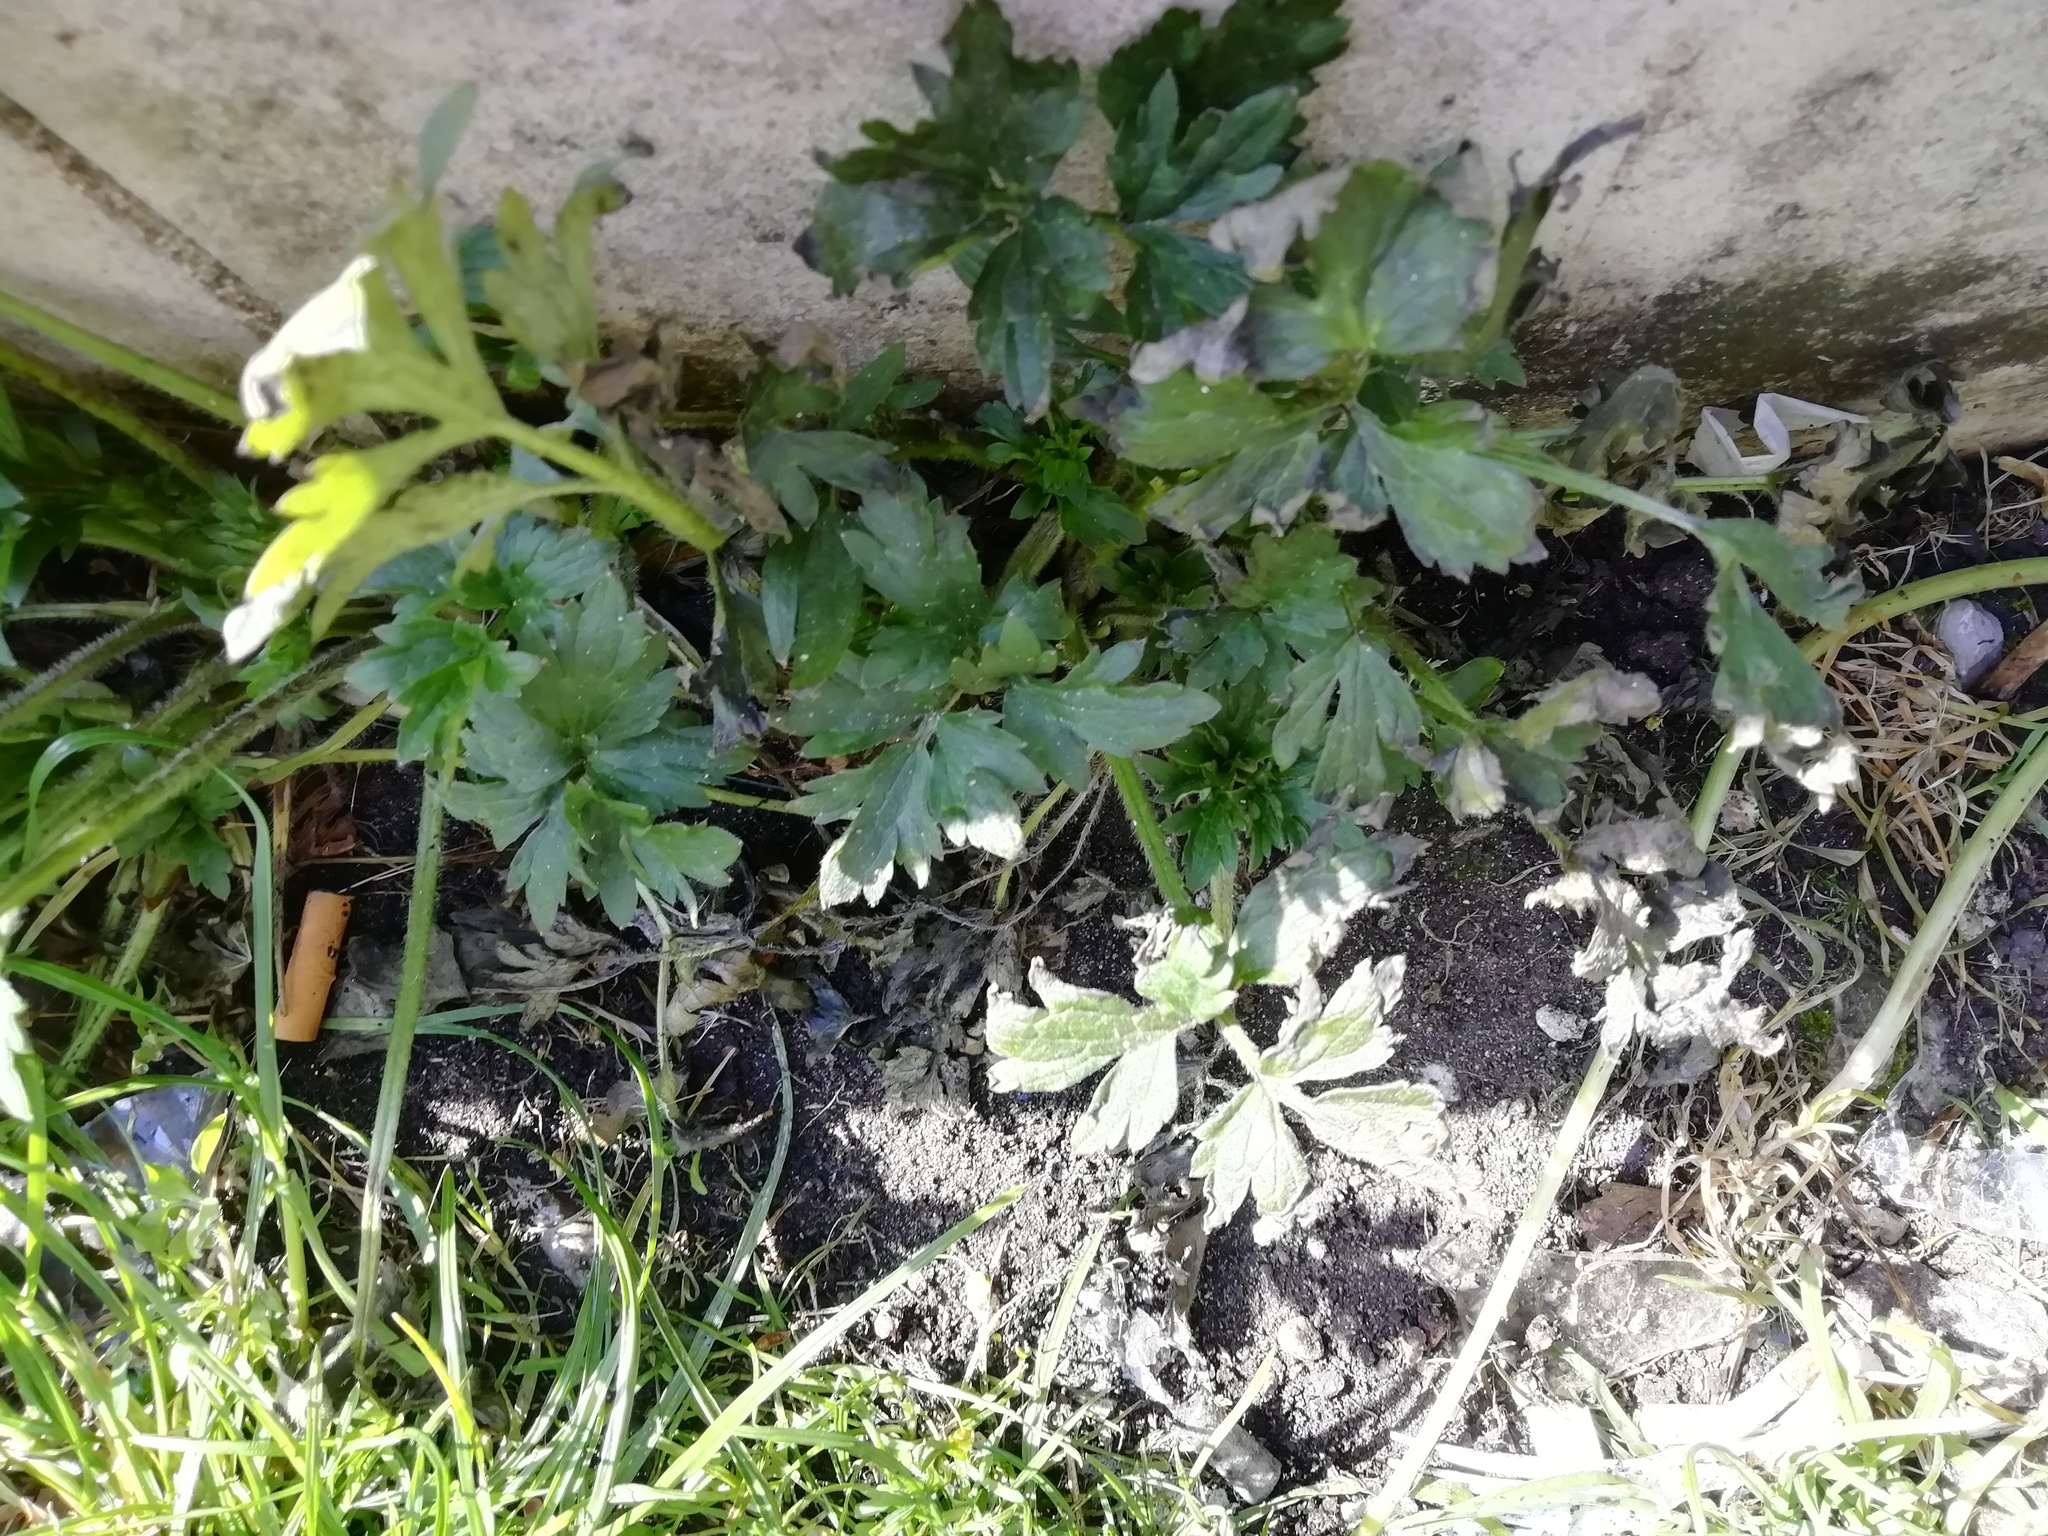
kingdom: Plantae
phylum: Tracheophyta
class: Magnoliopsida
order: Ranunculales
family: Ranunculaceae
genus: Ranunculus
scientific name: Ranunculus repens
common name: Creeping buttercup
